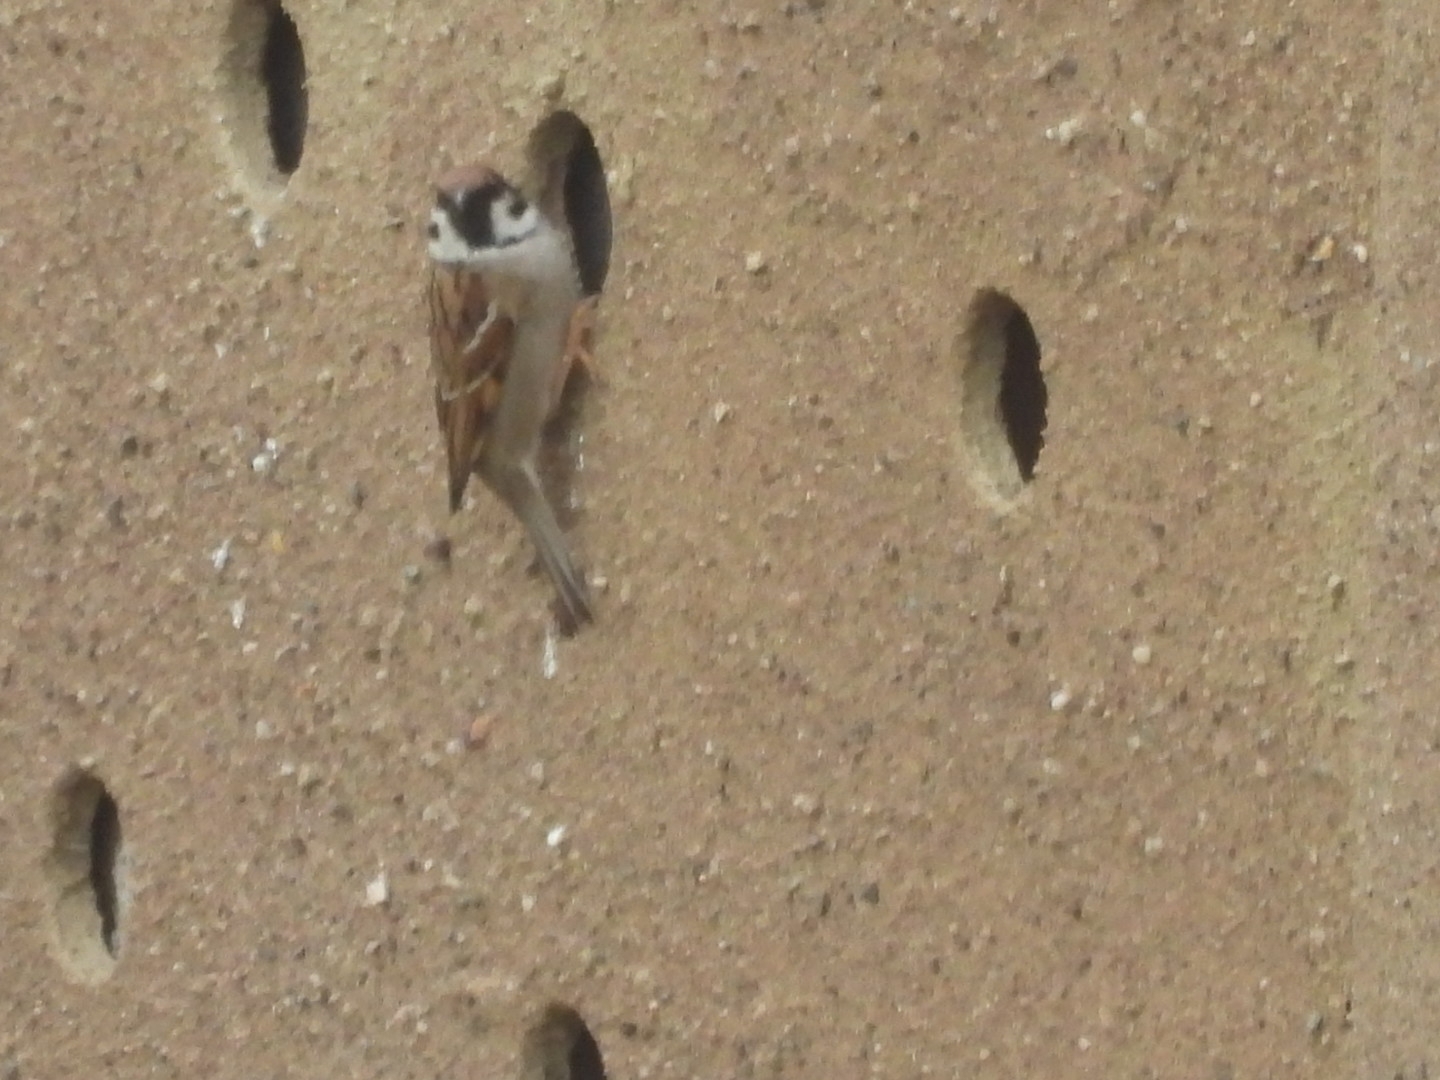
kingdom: Animalia
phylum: Chordata
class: Aves
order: Passeriformes
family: Passeridae
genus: Passer
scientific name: Passer montanus
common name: Eurasian tree sparrow
